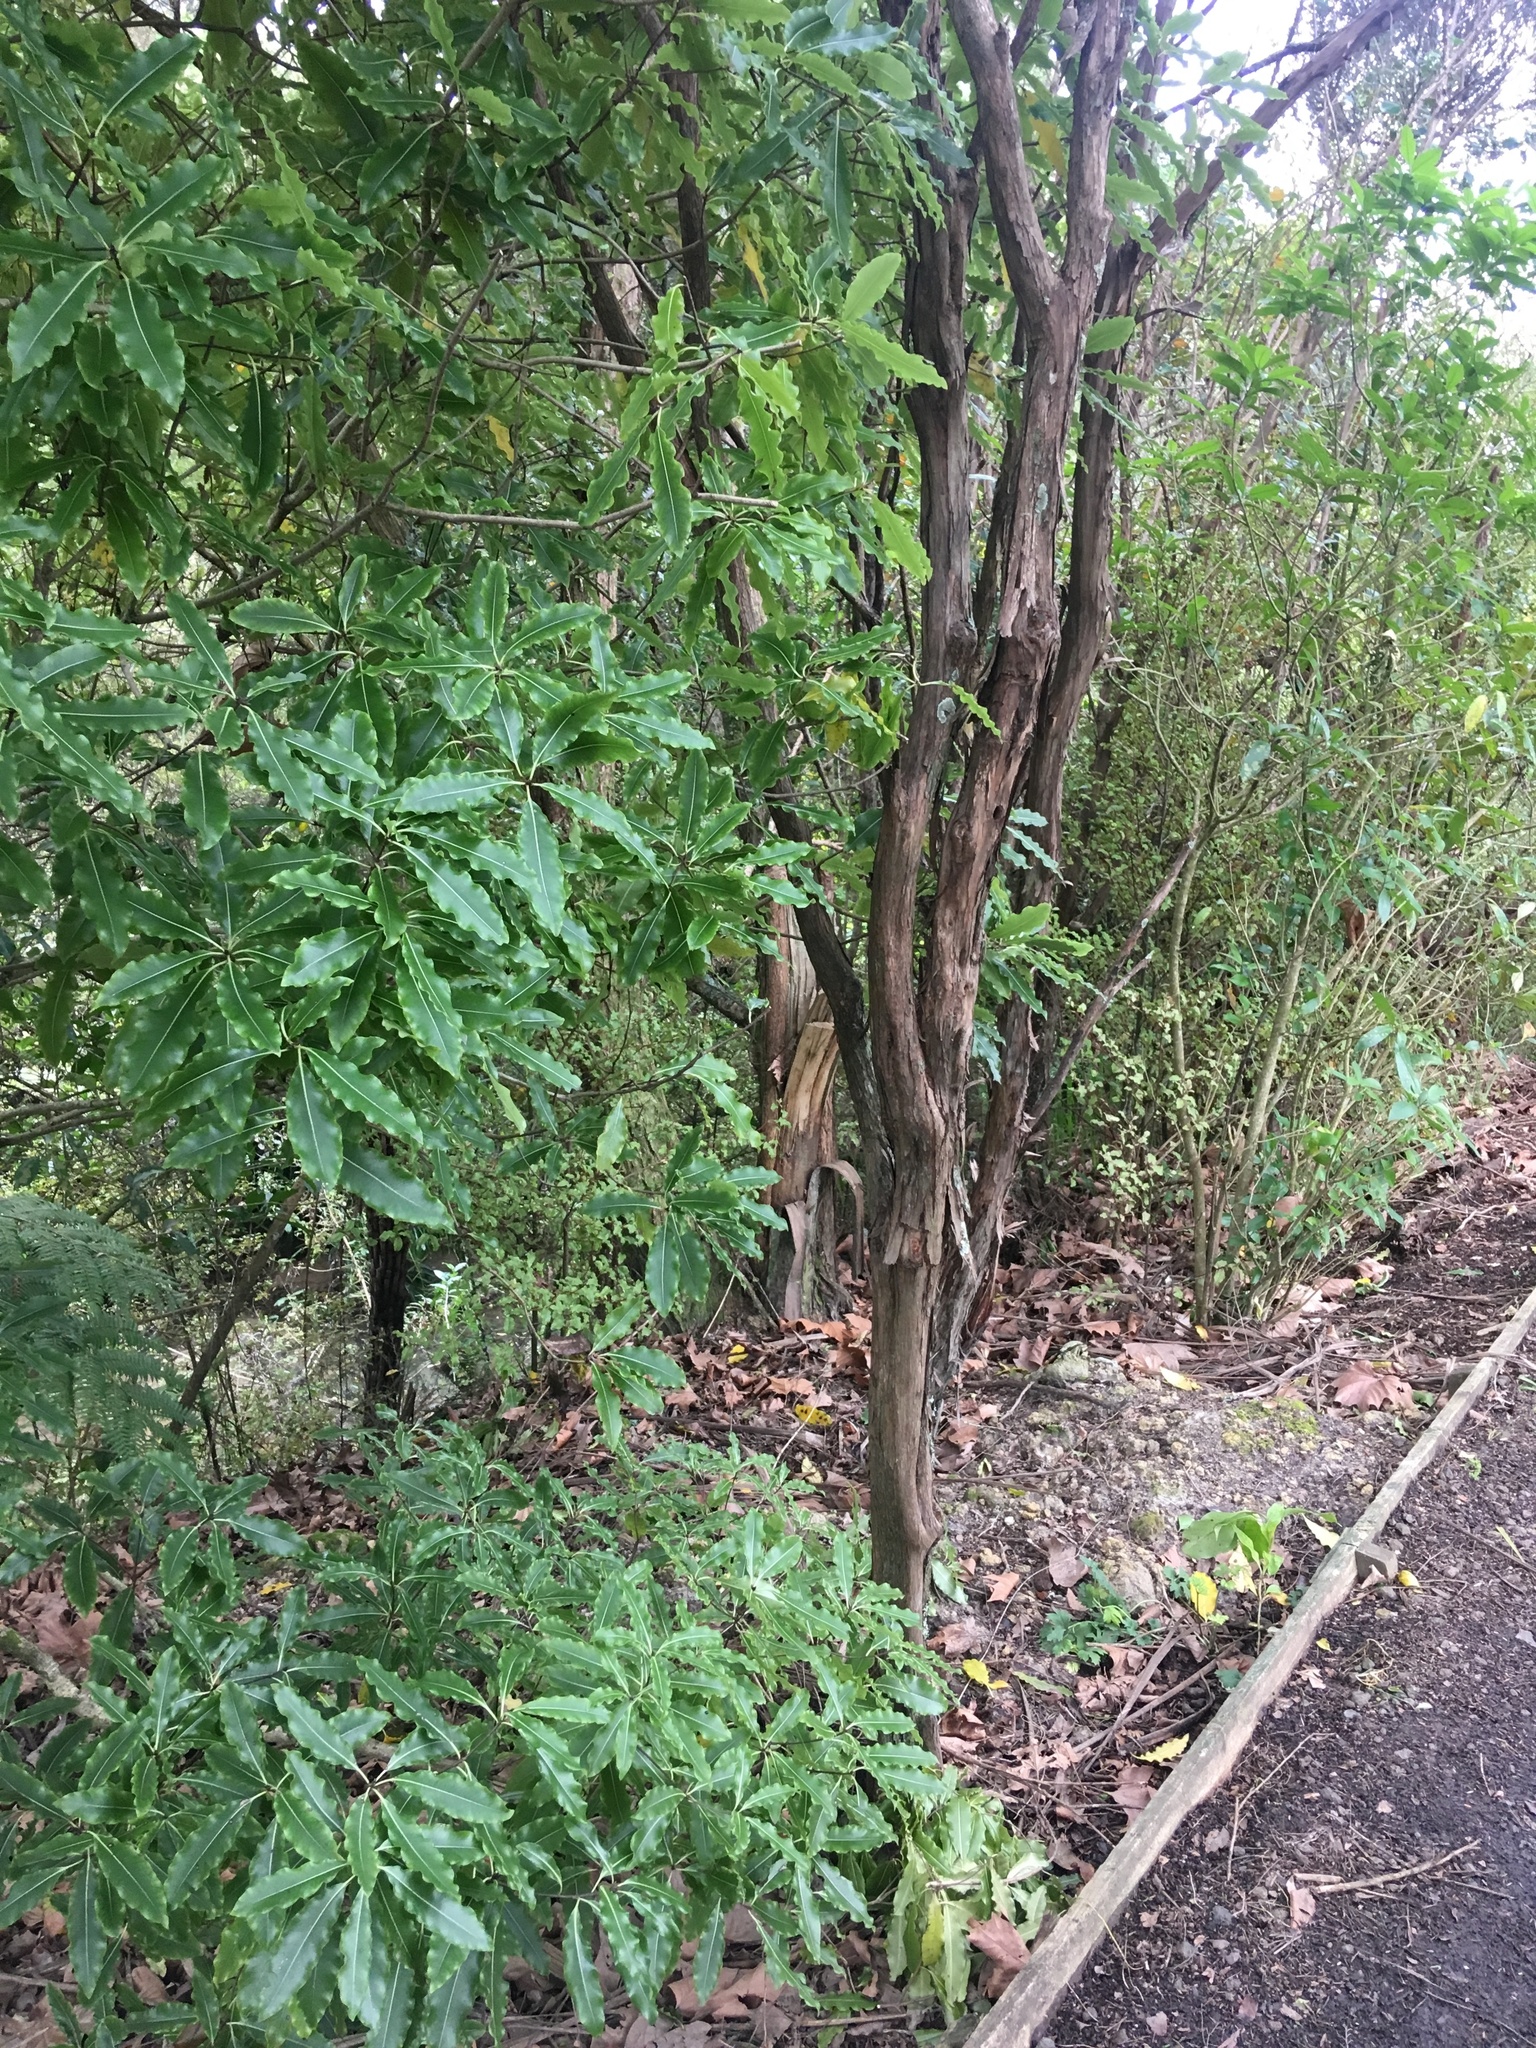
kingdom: Plantae
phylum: Tracheophyta
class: Magnoliopsida
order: Apiales
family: Pittosporaceae
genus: Pittosporum
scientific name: Pittosporum eugenioides
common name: Lemonwood
